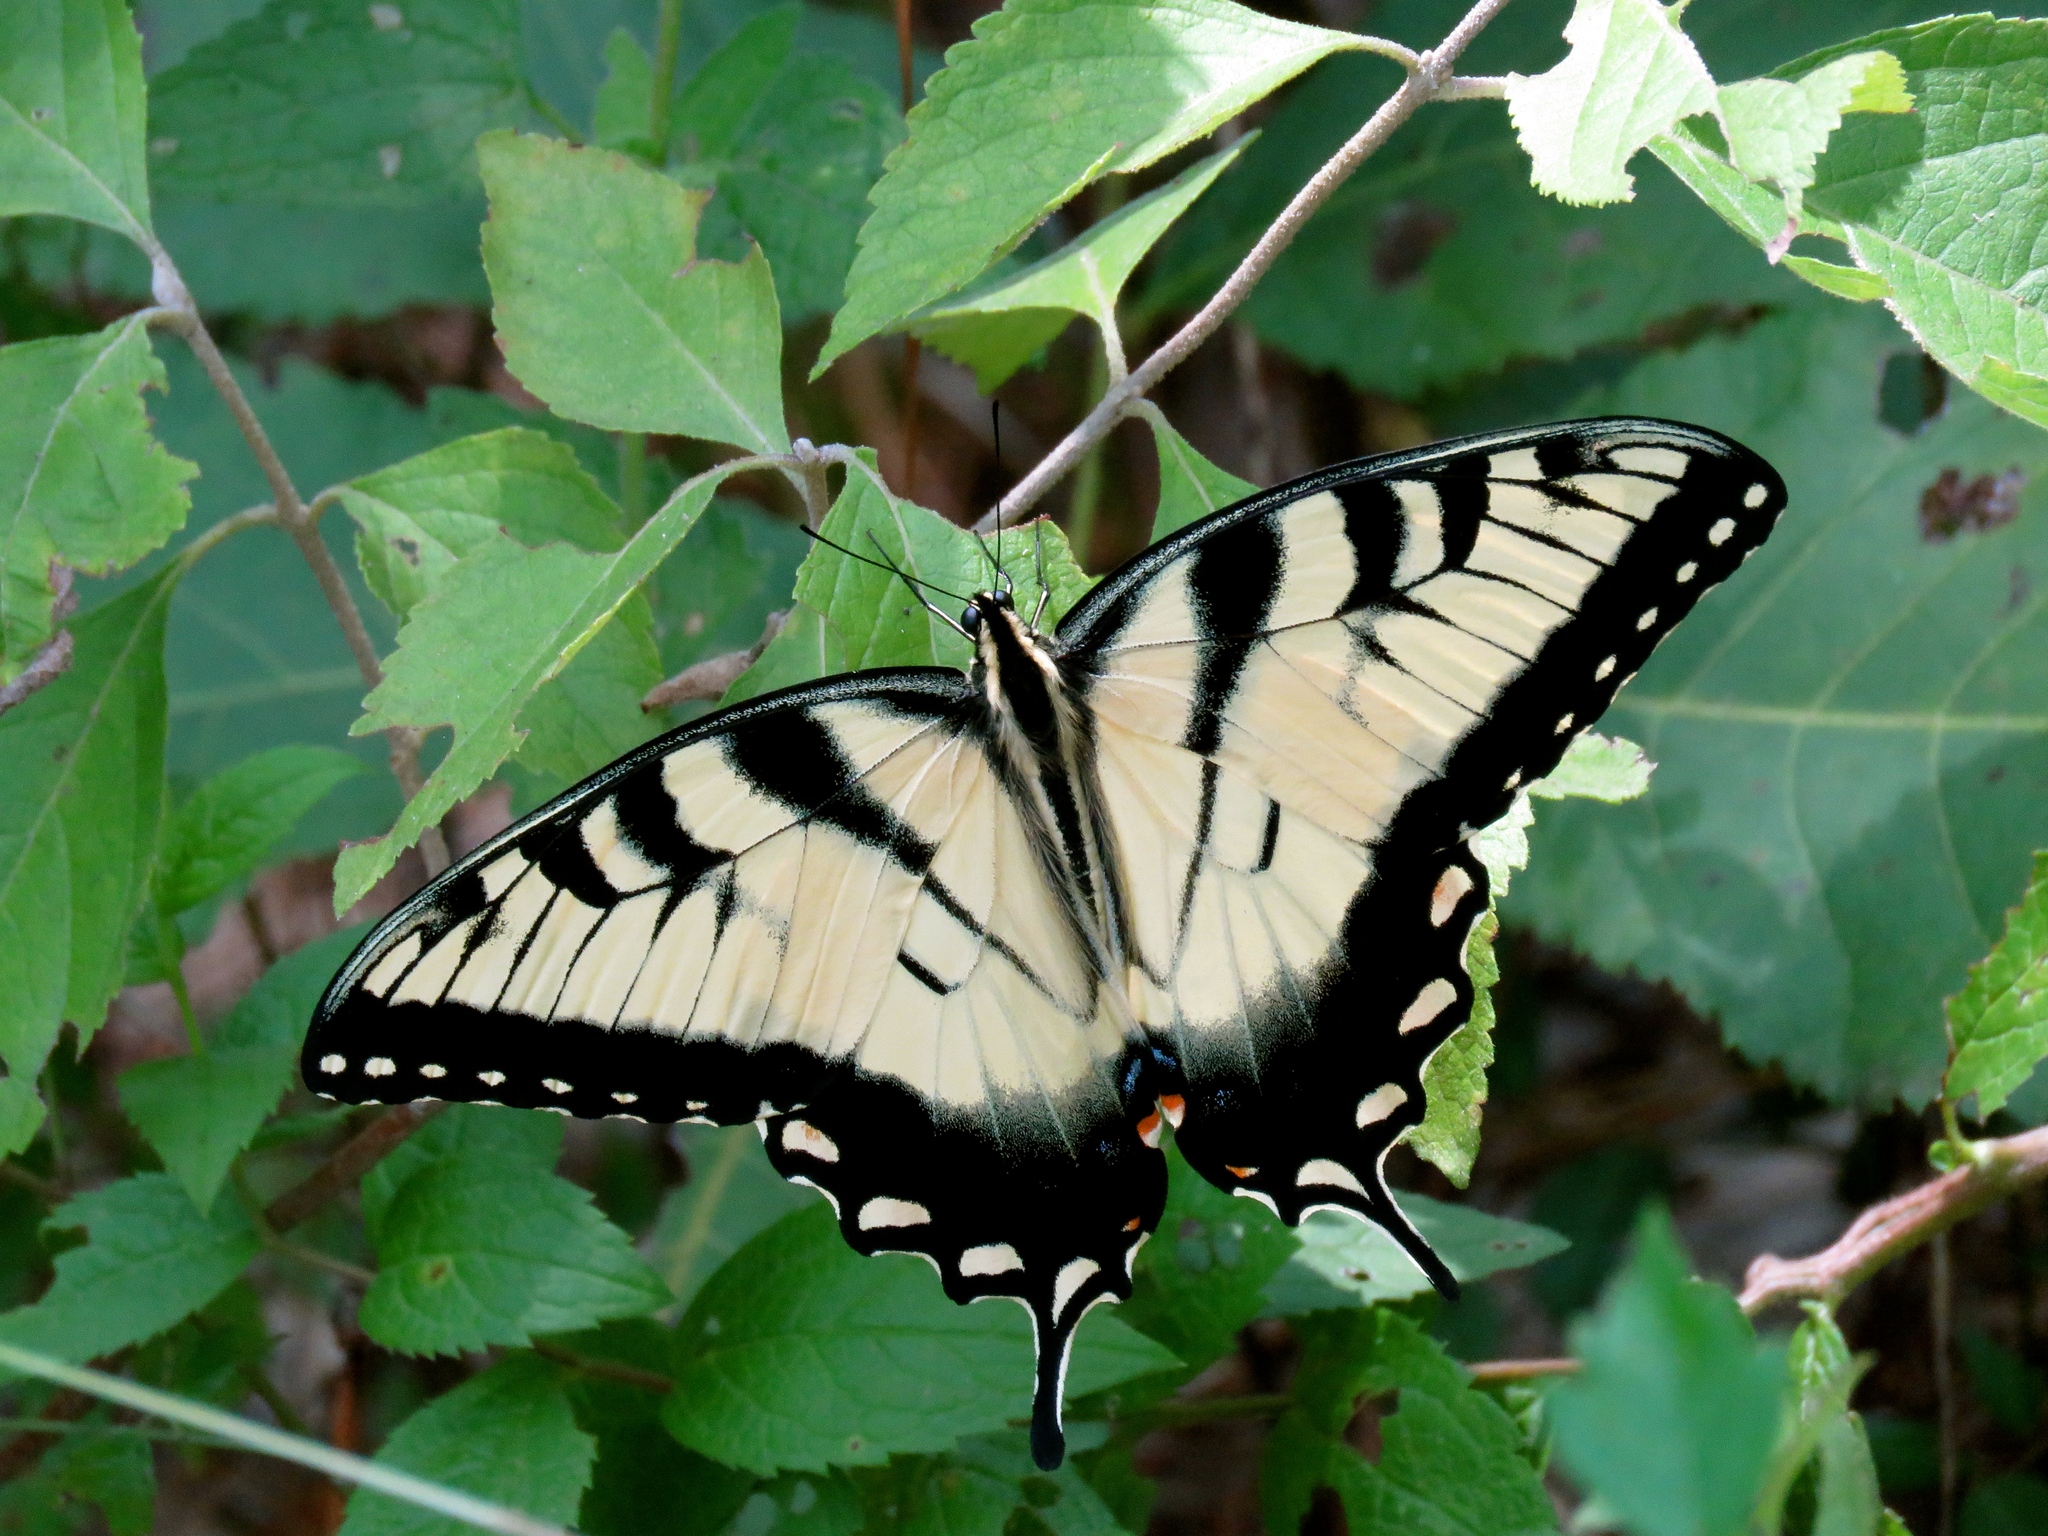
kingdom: Animalia
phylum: Arthropoda
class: Insecta
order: Lepidoptera
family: Papilionidae
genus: Papilio
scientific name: Papilio glaucus
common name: Tiger swallowtail
